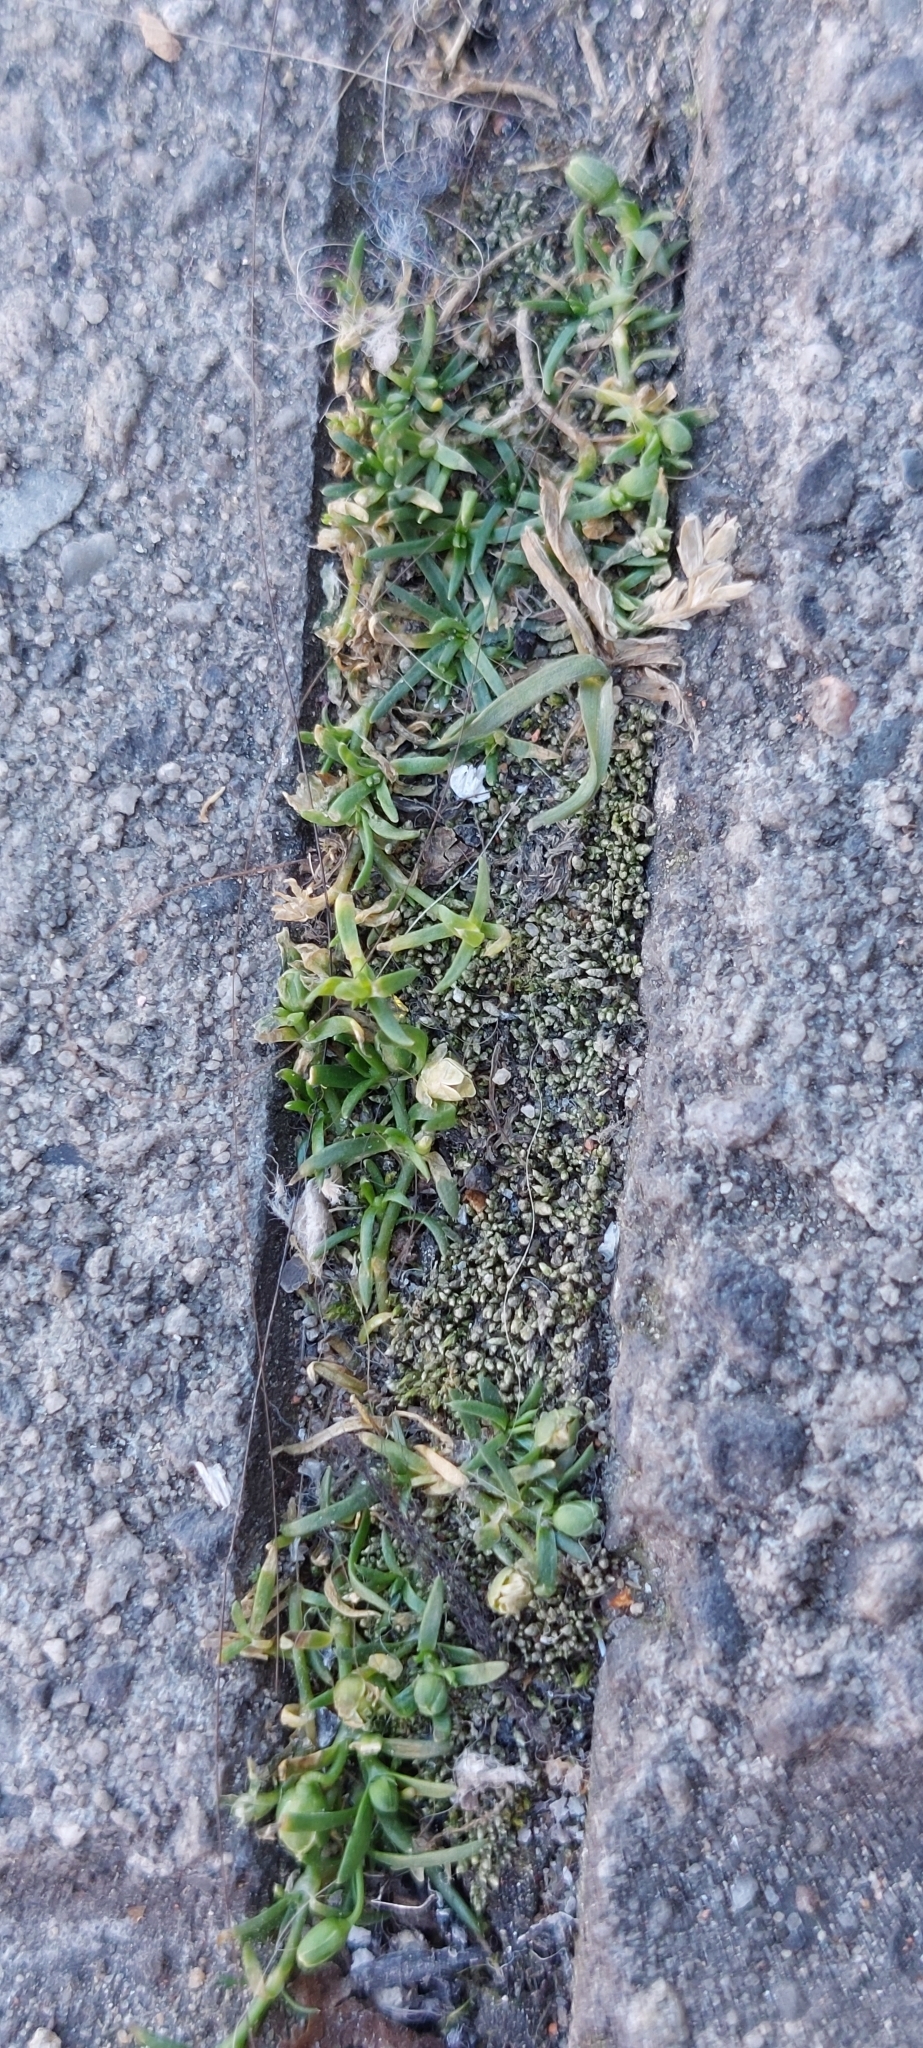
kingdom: Plantae
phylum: Tracheophyta
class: Magnoliopsida
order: Caryophyllales
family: Caryophyllaceae
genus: Sagina
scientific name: Sagina procumbens
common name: Procumbent pearlwort
